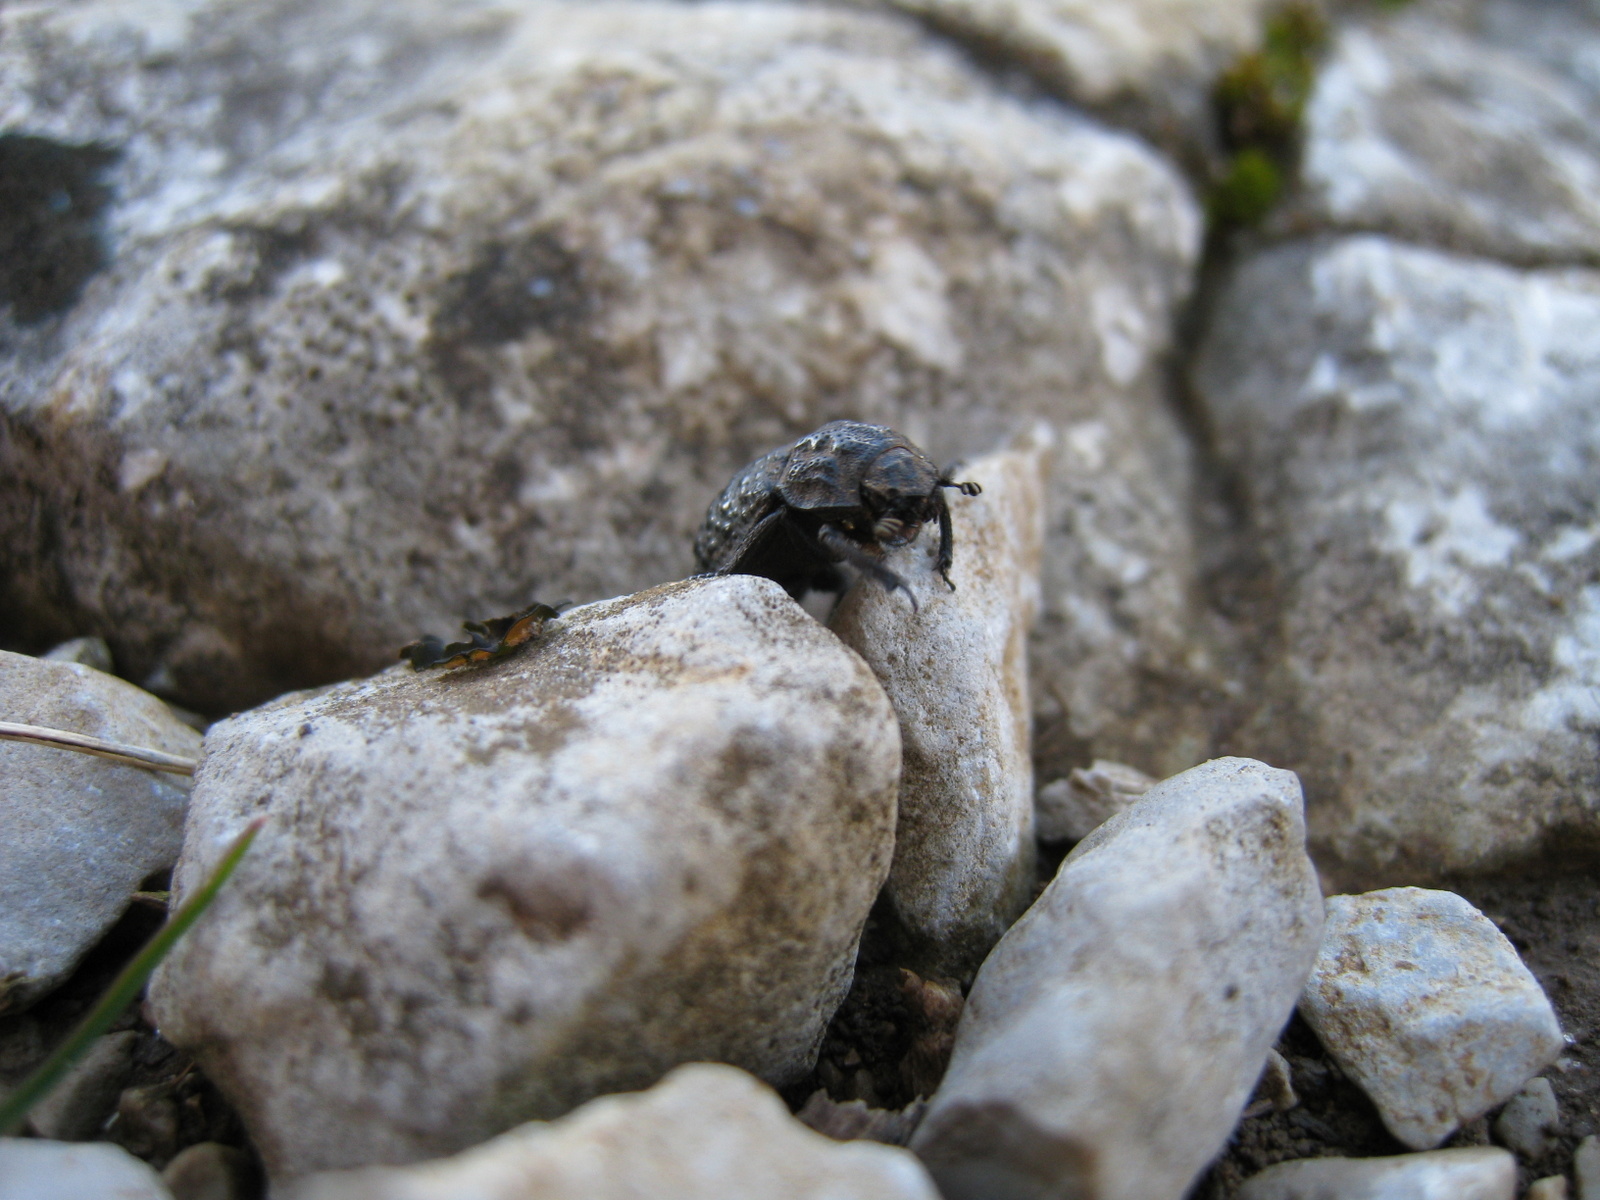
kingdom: Animalia
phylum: Arthropoda
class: Insecta
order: Coleoptera
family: Trogidae
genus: Trox
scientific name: Trox perlatus
